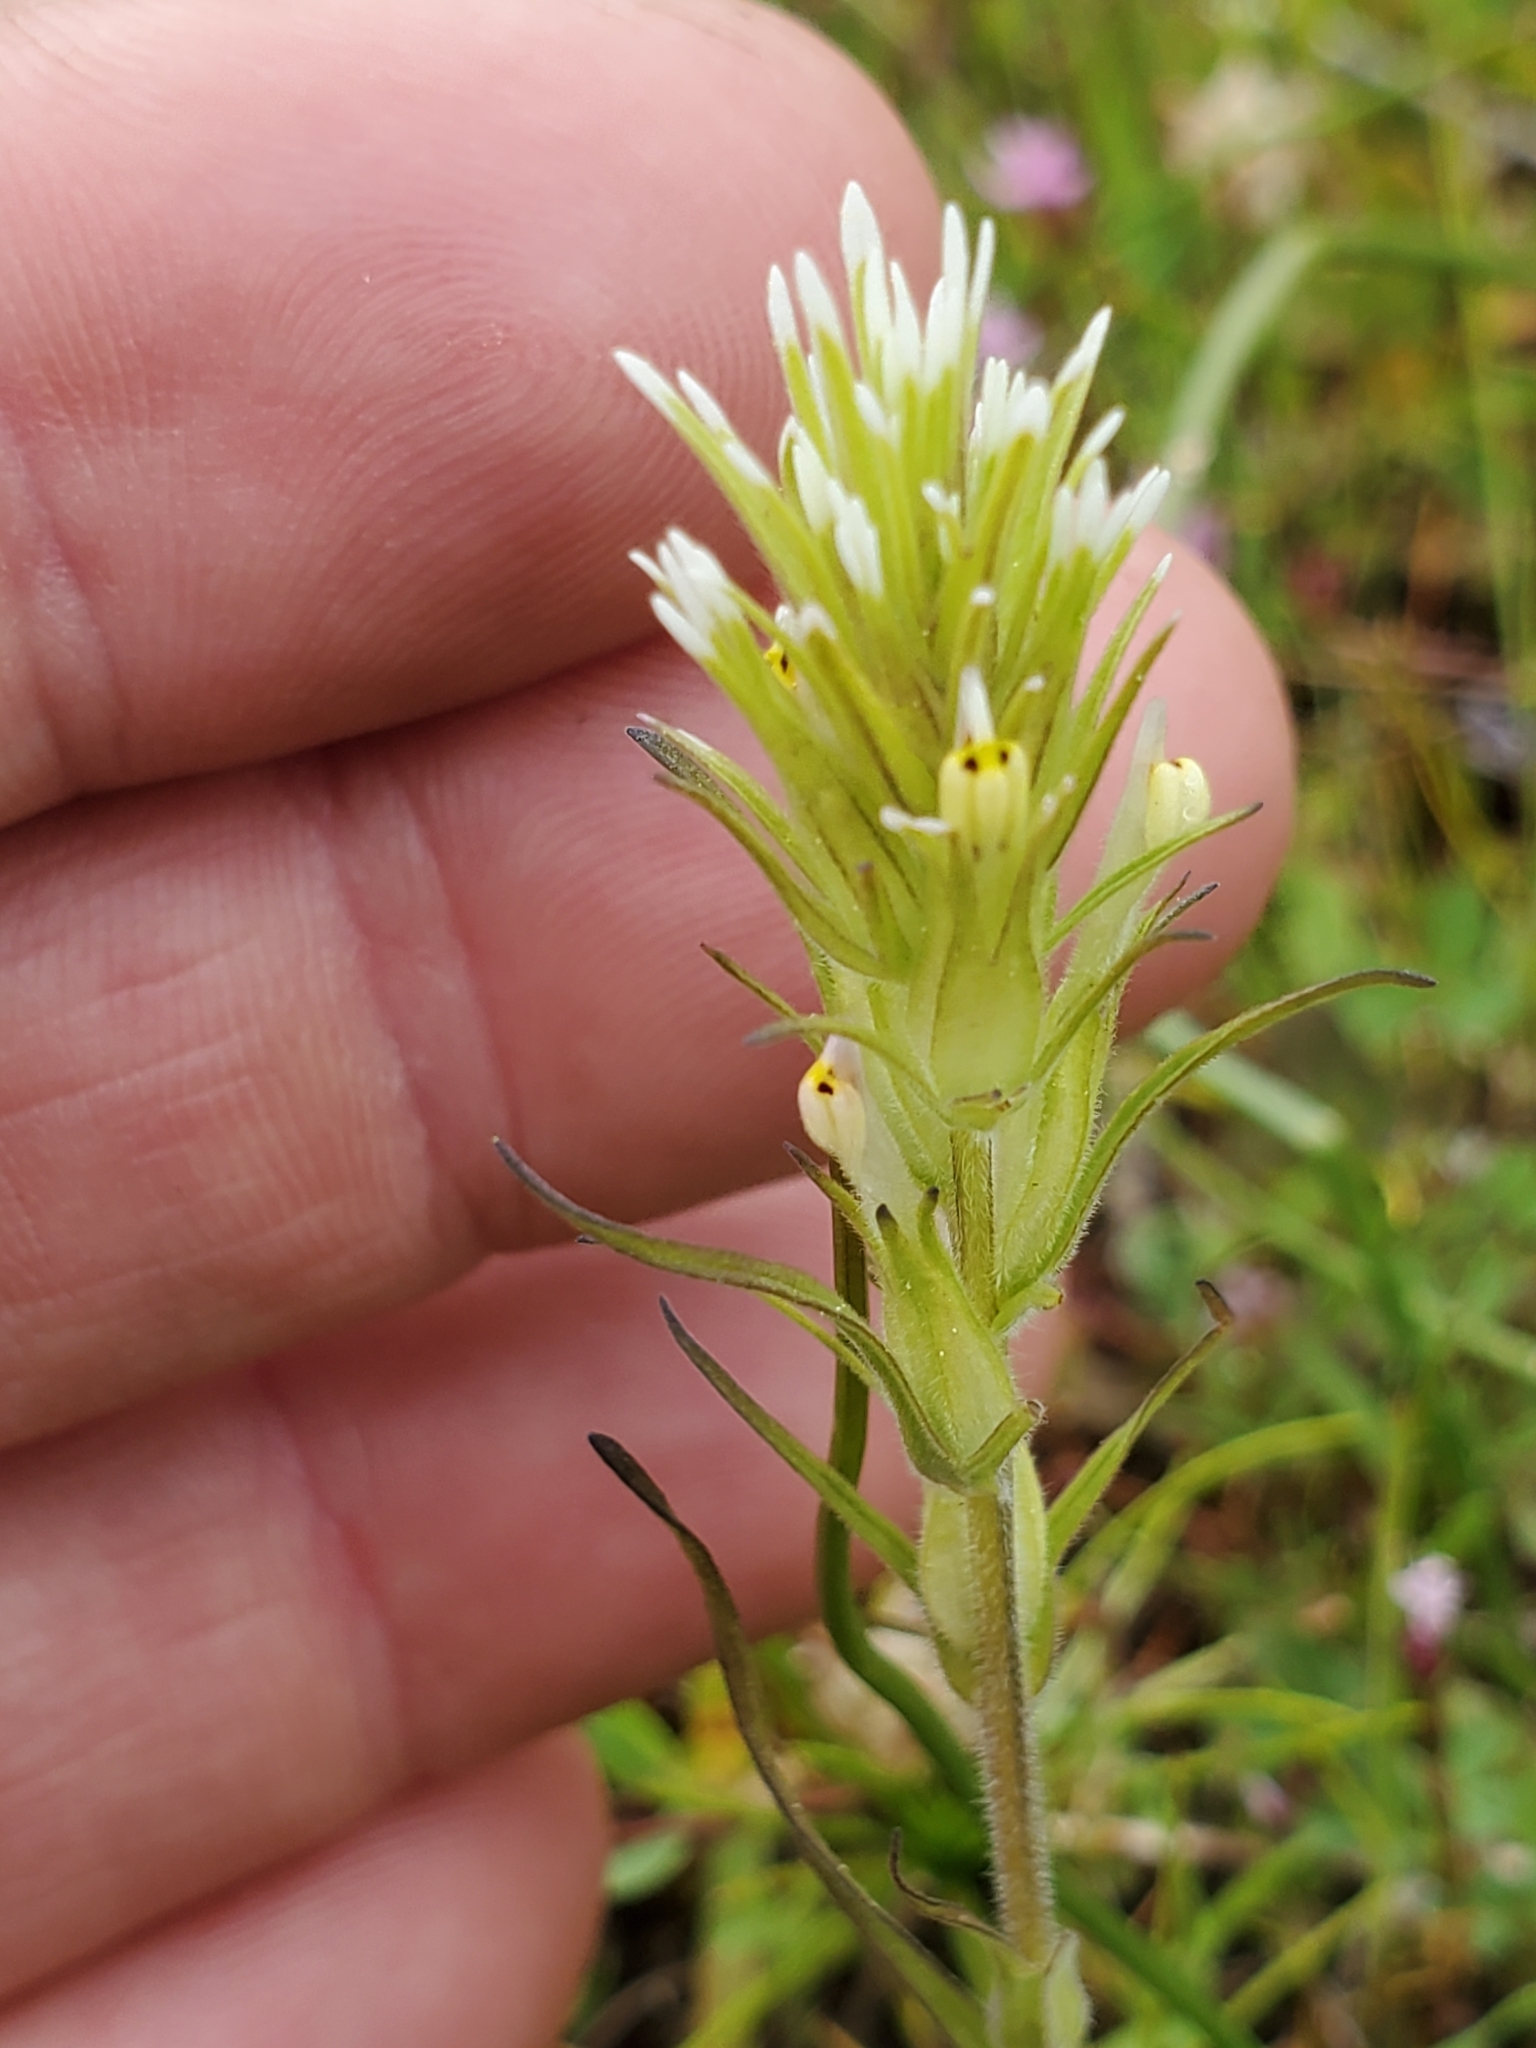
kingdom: Plantae
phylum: Tracheophyta
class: Magnoliopsida
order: Lamiales
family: Orobanchaceae
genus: Castilleja
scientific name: Castilleja attenuata
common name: Valley tassels
